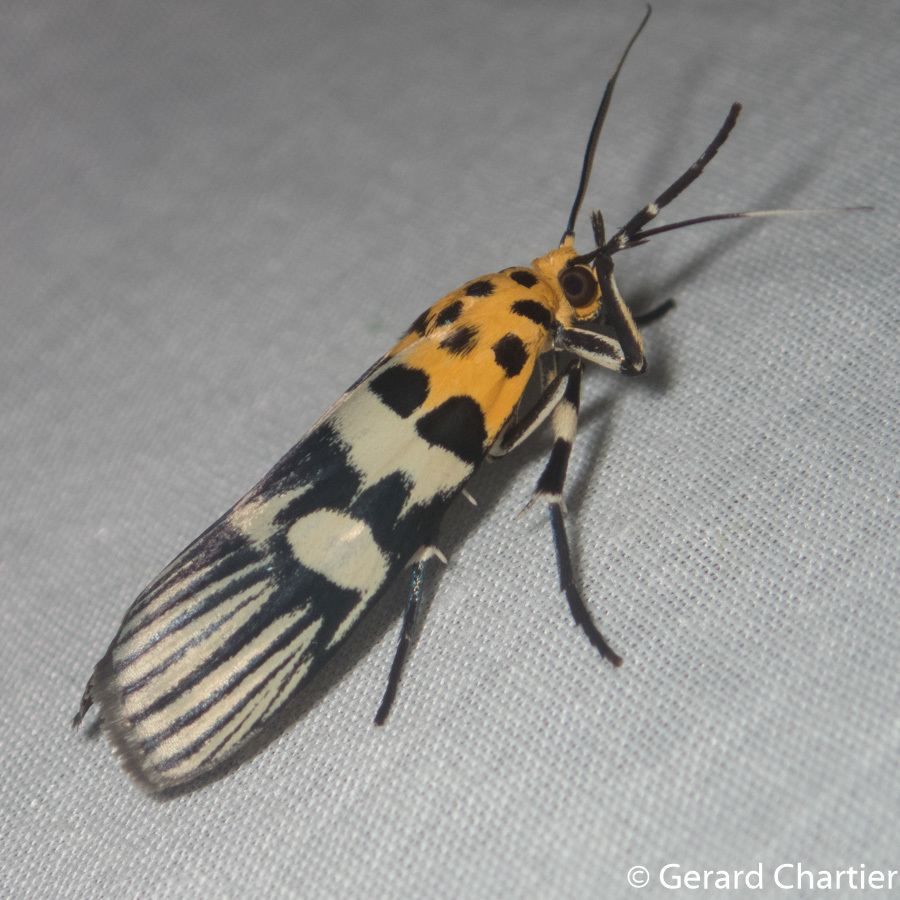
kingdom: Animalia
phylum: Arthropoda
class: Insecta
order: Lepidoptera
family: Pyralidae
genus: Vitessa
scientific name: Vitessa suradeva
